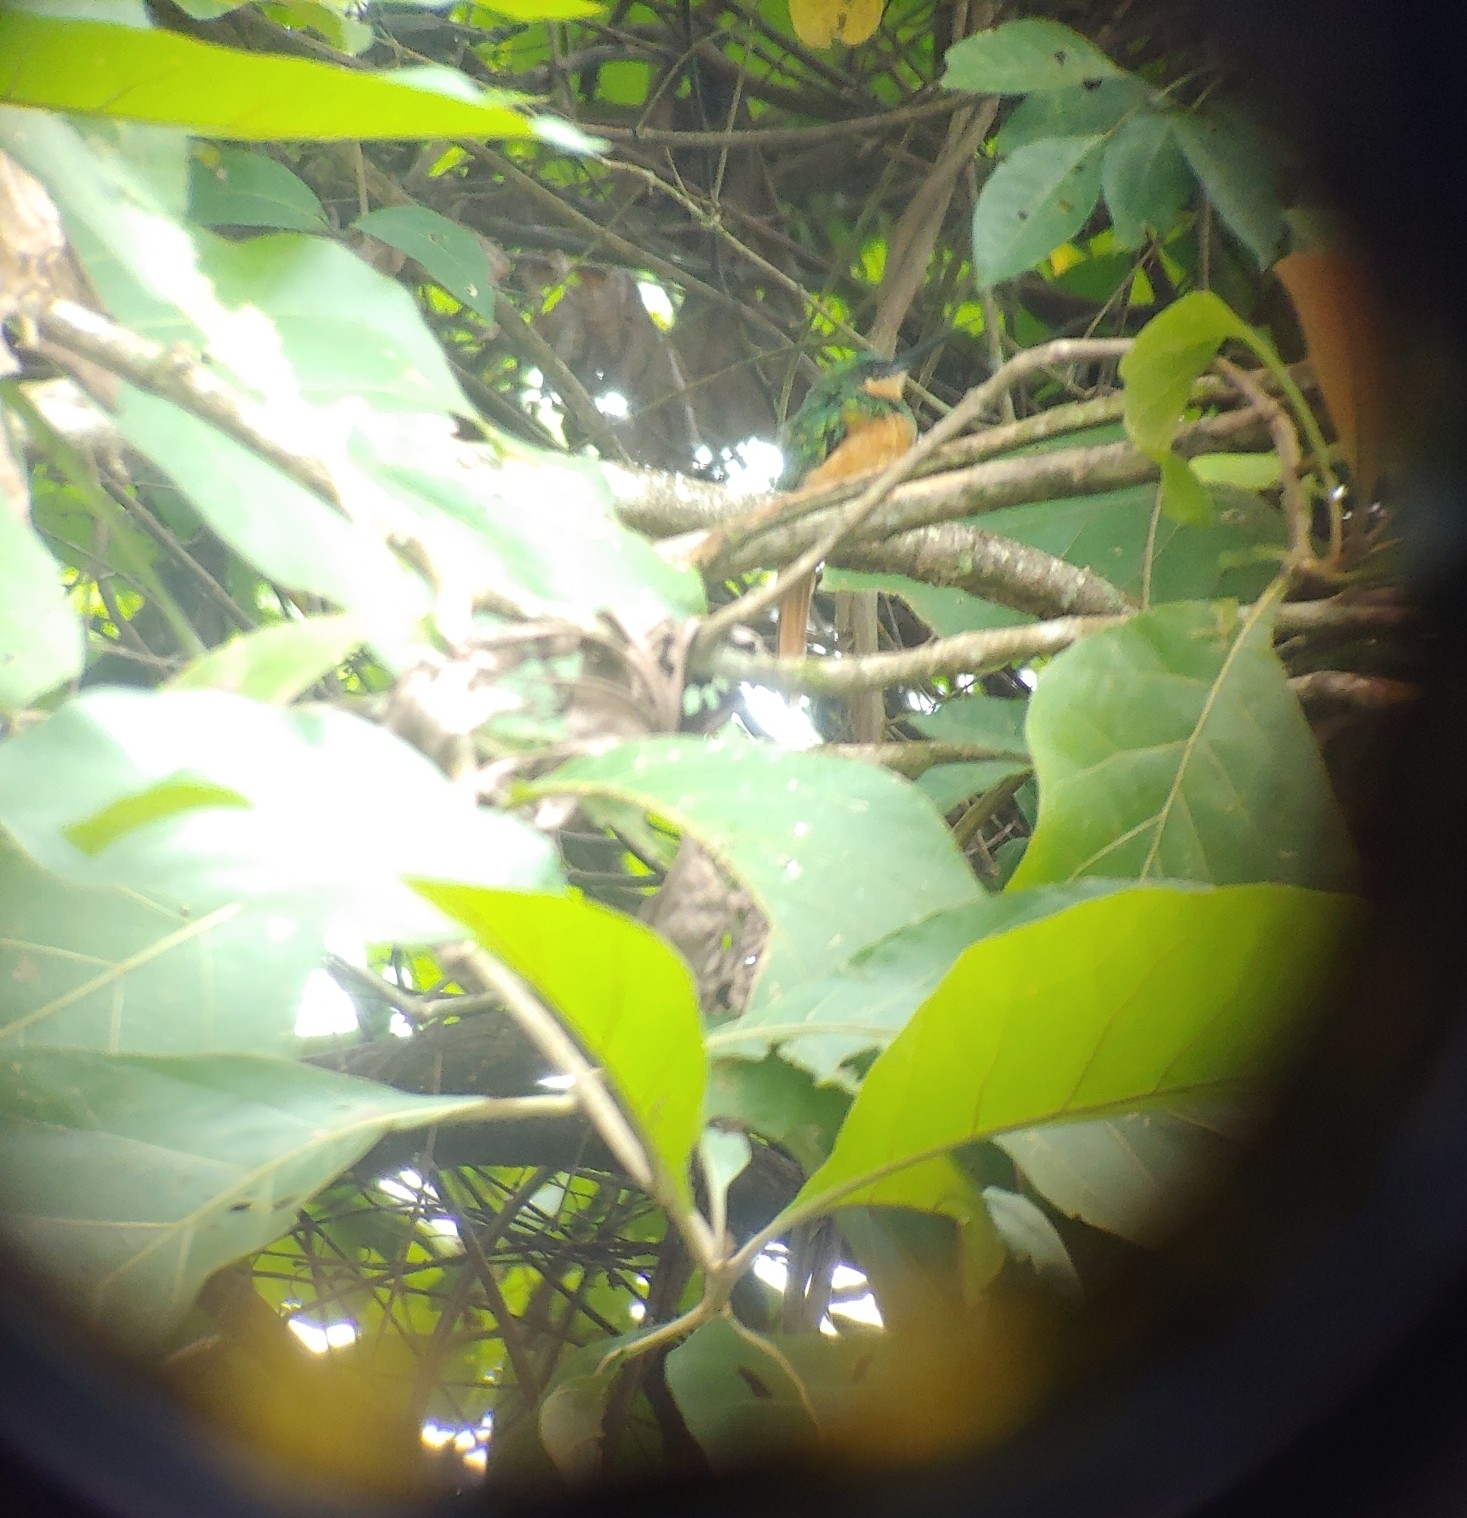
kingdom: Animalia
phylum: Chordata
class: Aves
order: Piciformes
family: Galbulidae
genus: Galbula
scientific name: Galbula ruficauda
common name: Rufous-tailed jacamar
